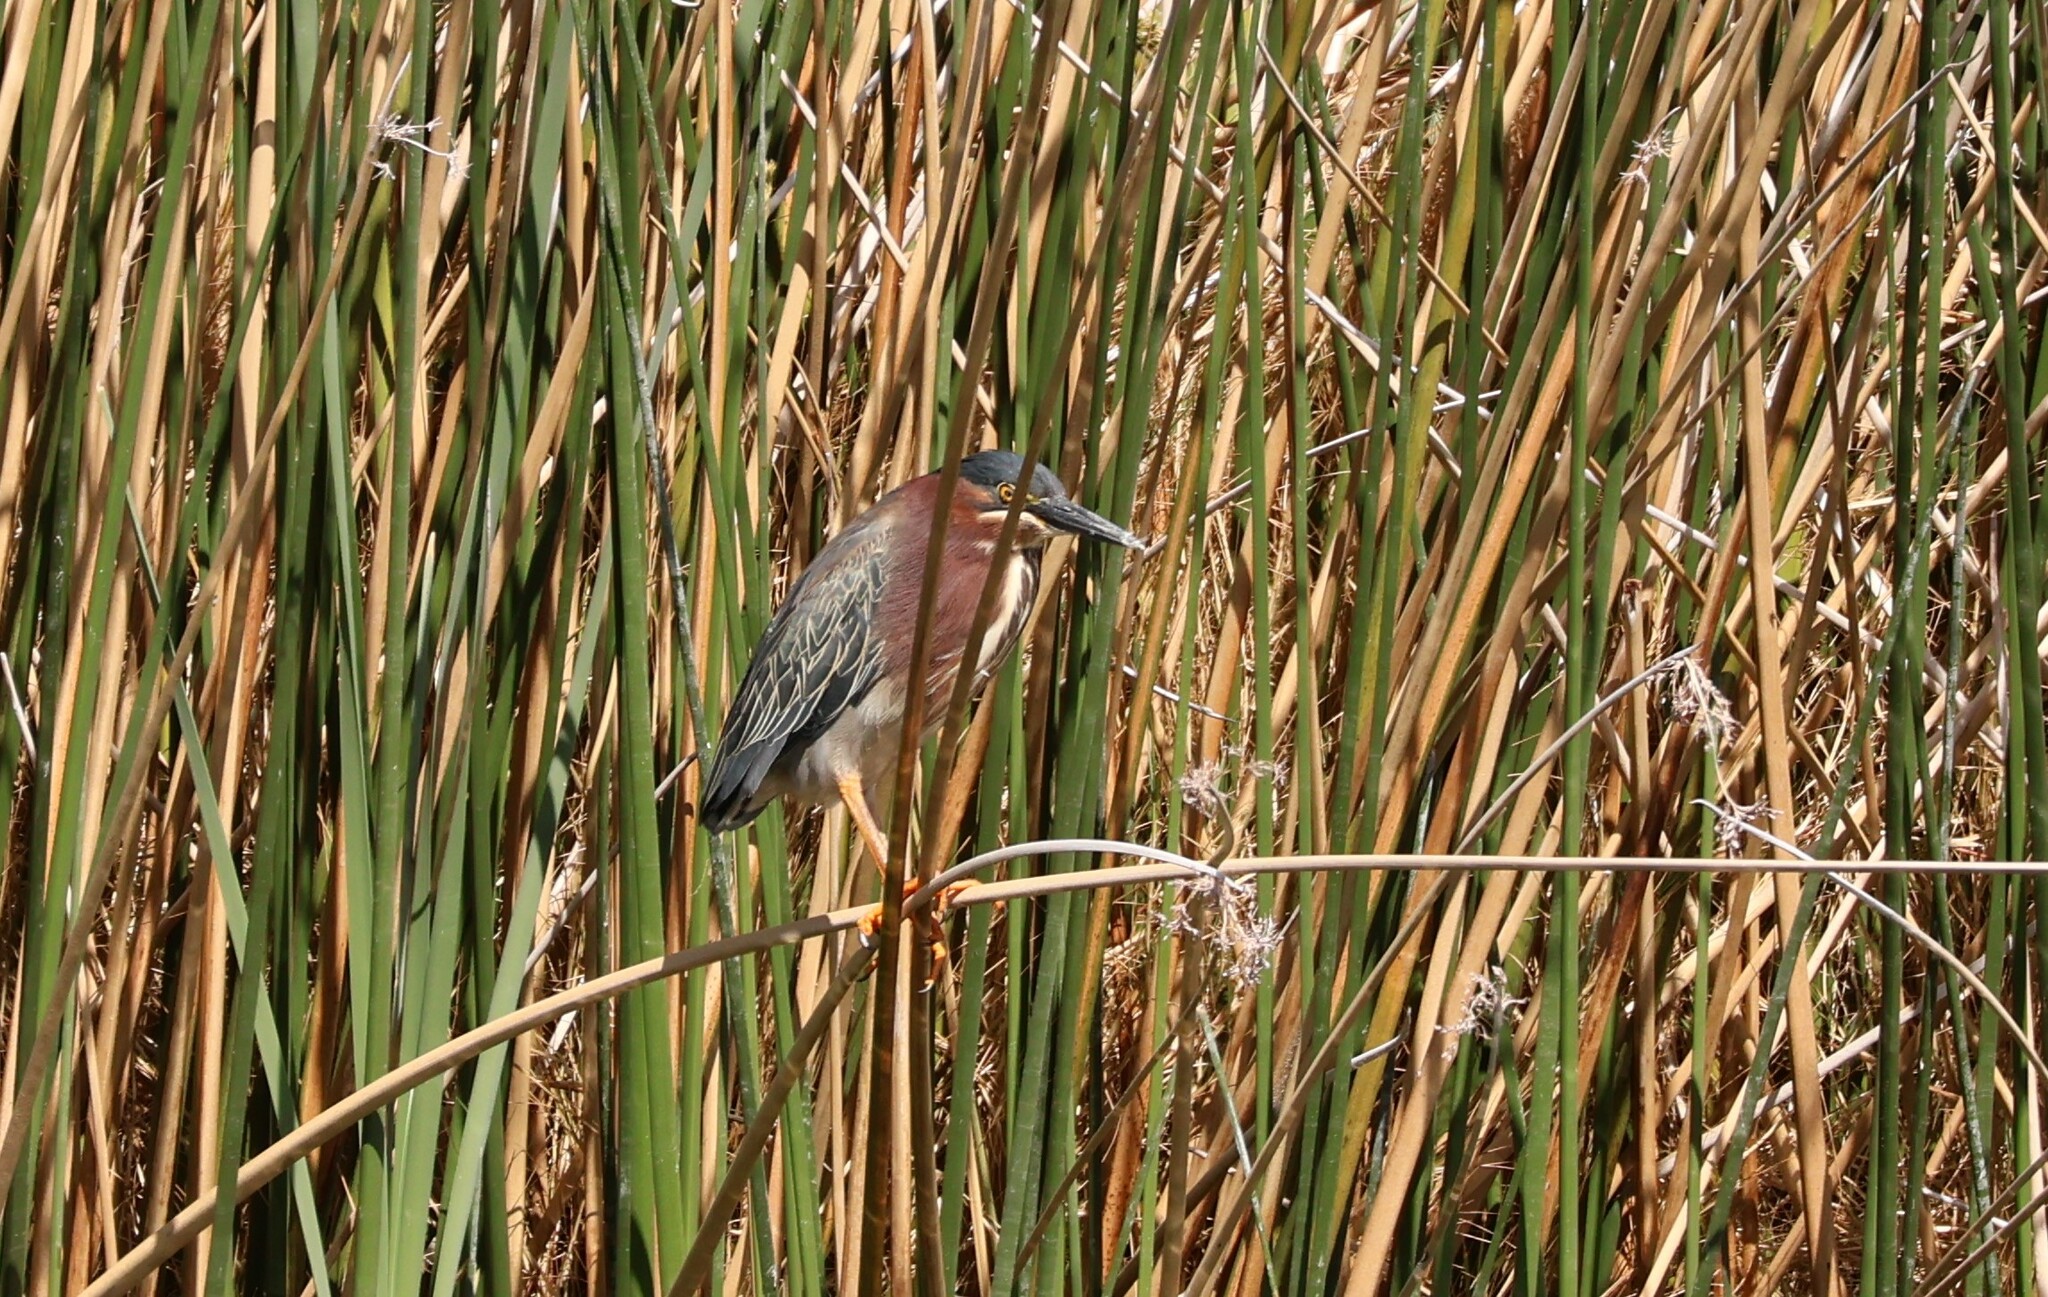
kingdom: Animalia
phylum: Chordata
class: Aves
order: Pelecaniformes
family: Ardeidae
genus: Butorides
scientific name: Butorides virescens
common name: Green heron
